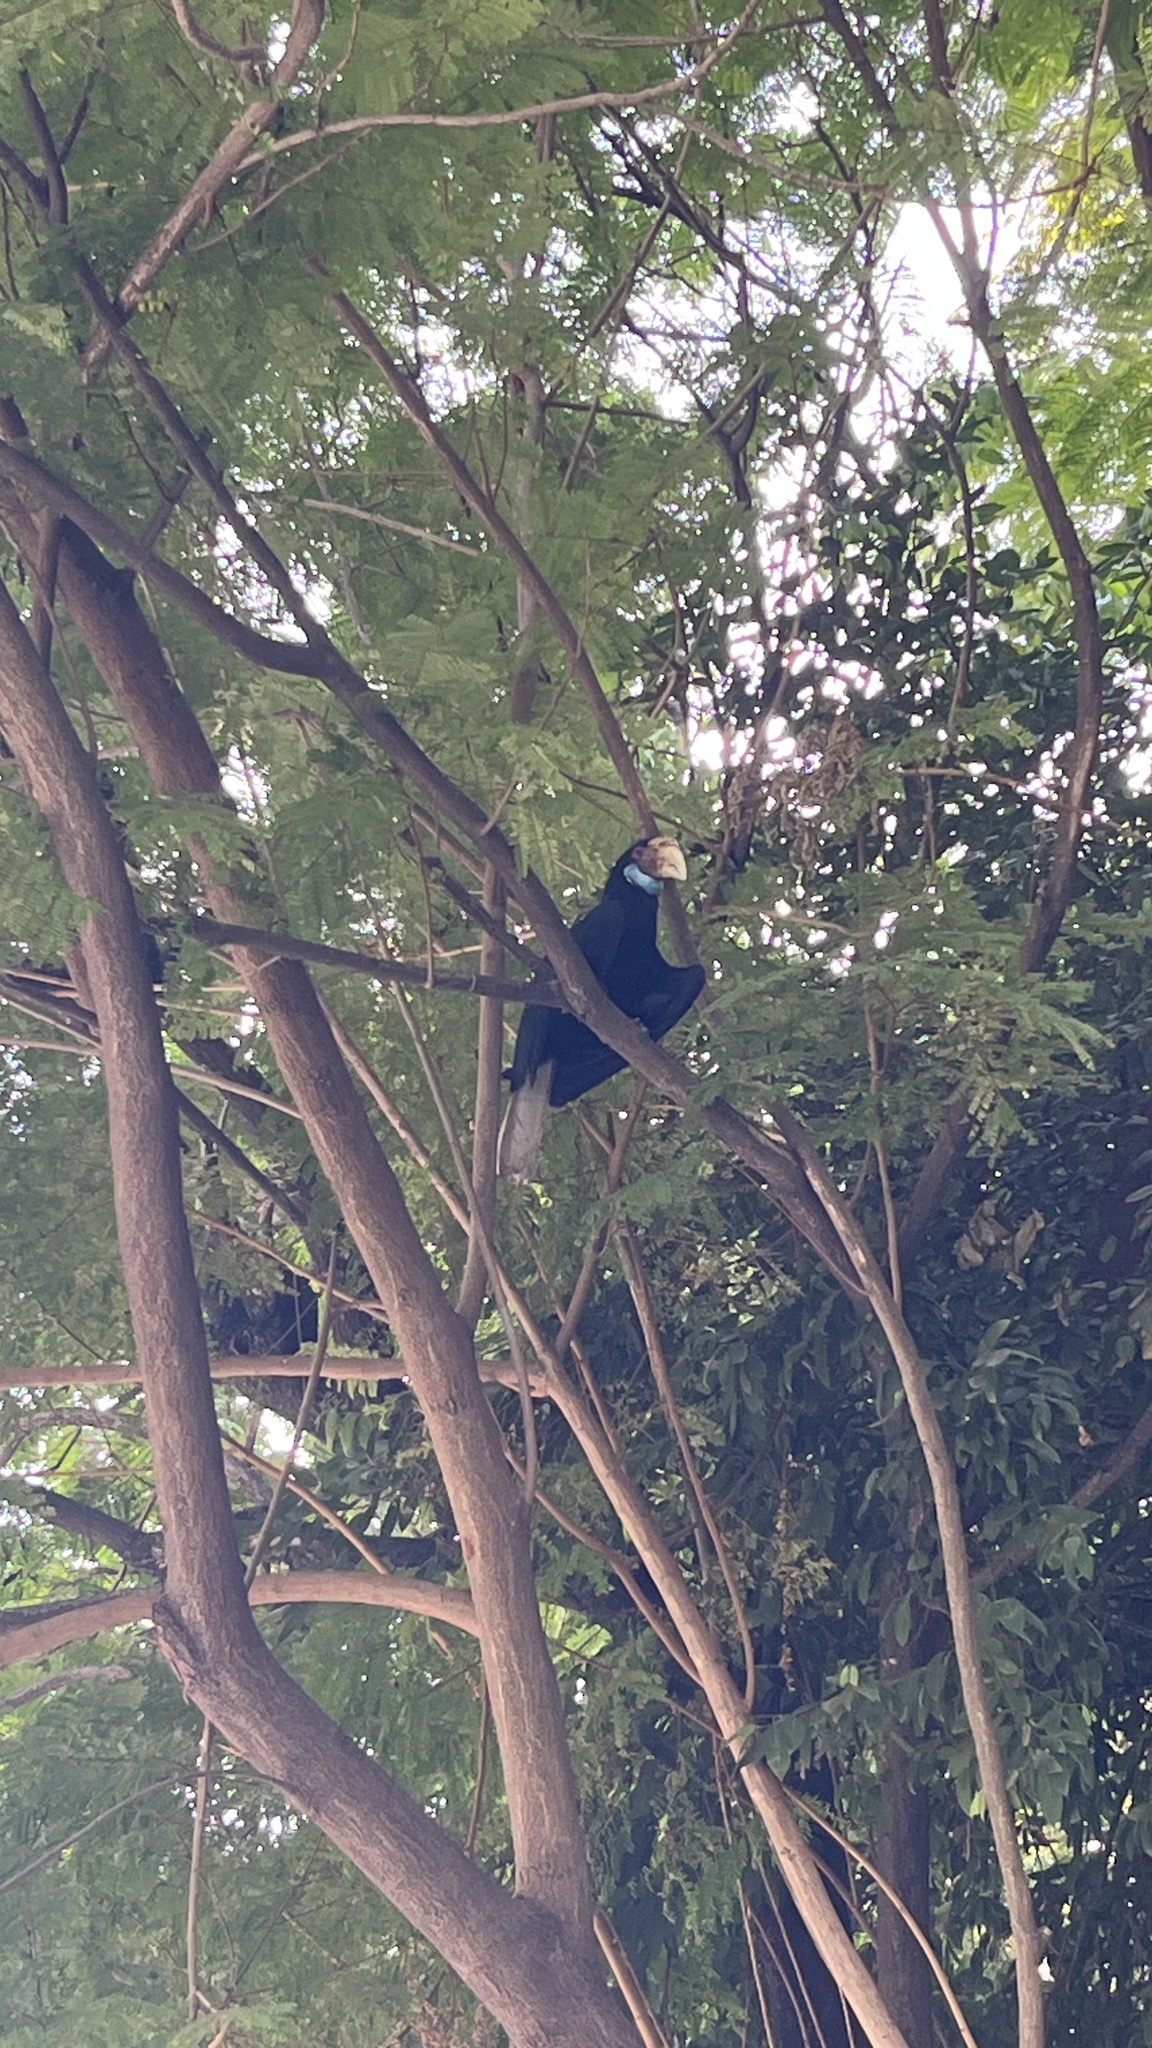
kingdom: Animalia
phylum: Chordata
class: Aves
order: Bucerotiformes
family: Bucerotidae
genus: Rhyticeros
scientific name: Rhyticeros undulatus
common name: Wreathed hornbill
